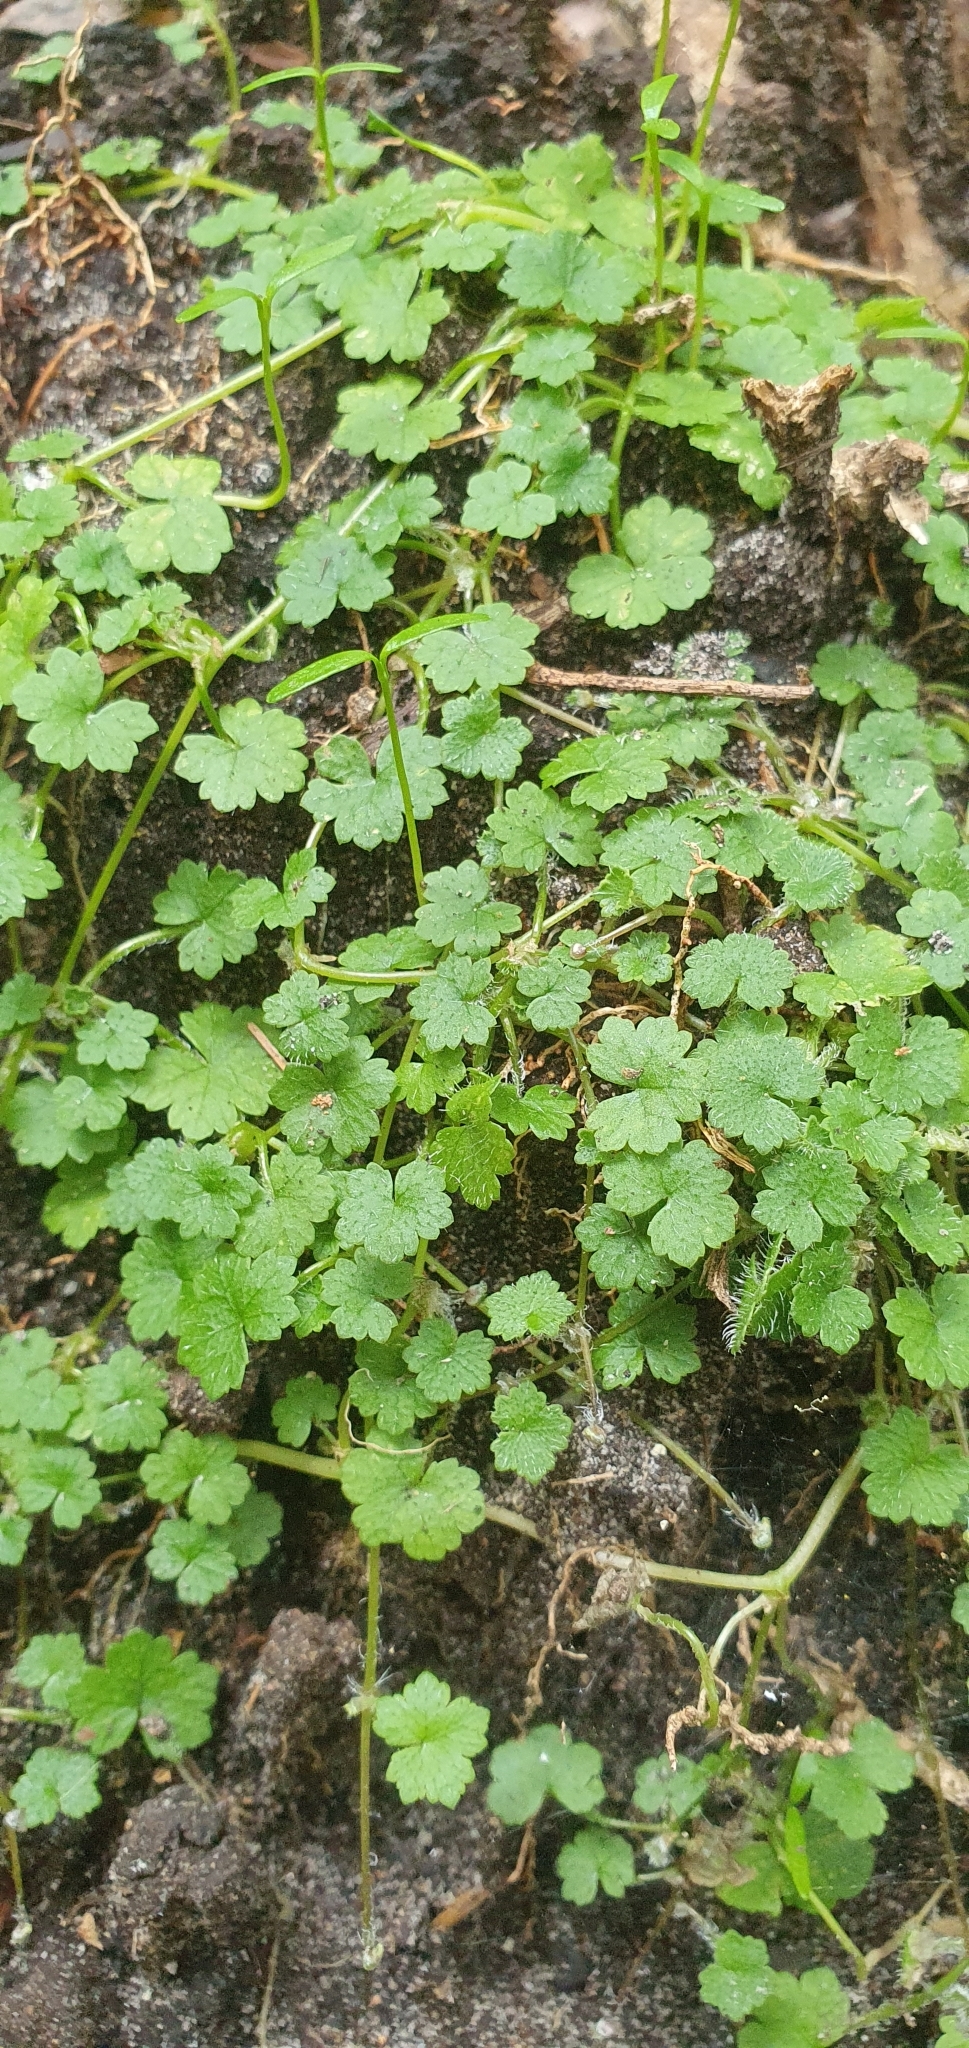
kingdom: Plantae
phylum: Tracheophyta
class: Magnoliopsida
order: Apiales
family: Araliaceae
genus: Hydrocotyle
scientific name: Hydrocotyle hirta
